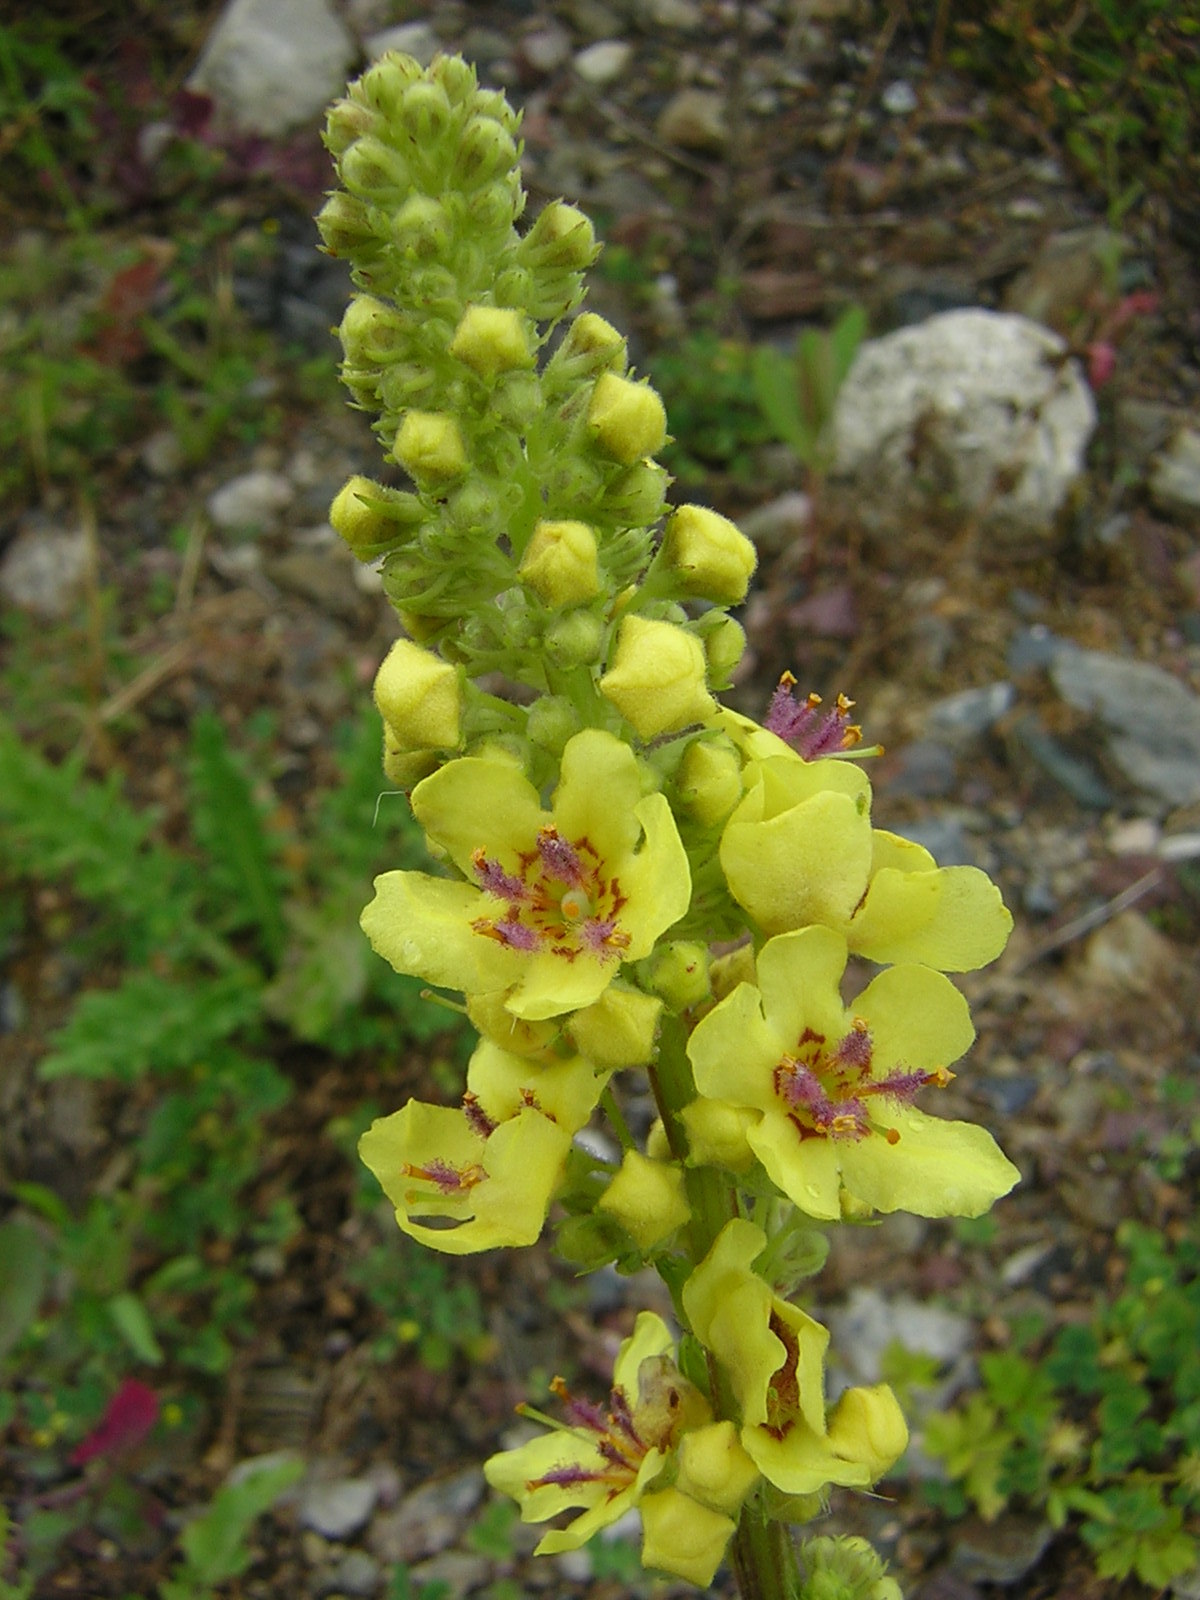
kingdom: Plantae
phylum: Tracheophyta
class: Magnoliopsida
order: Lamiales
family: Scrophulariaceae
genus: Verbascum
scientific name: Verbascum nigrum
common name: Dark mullein
